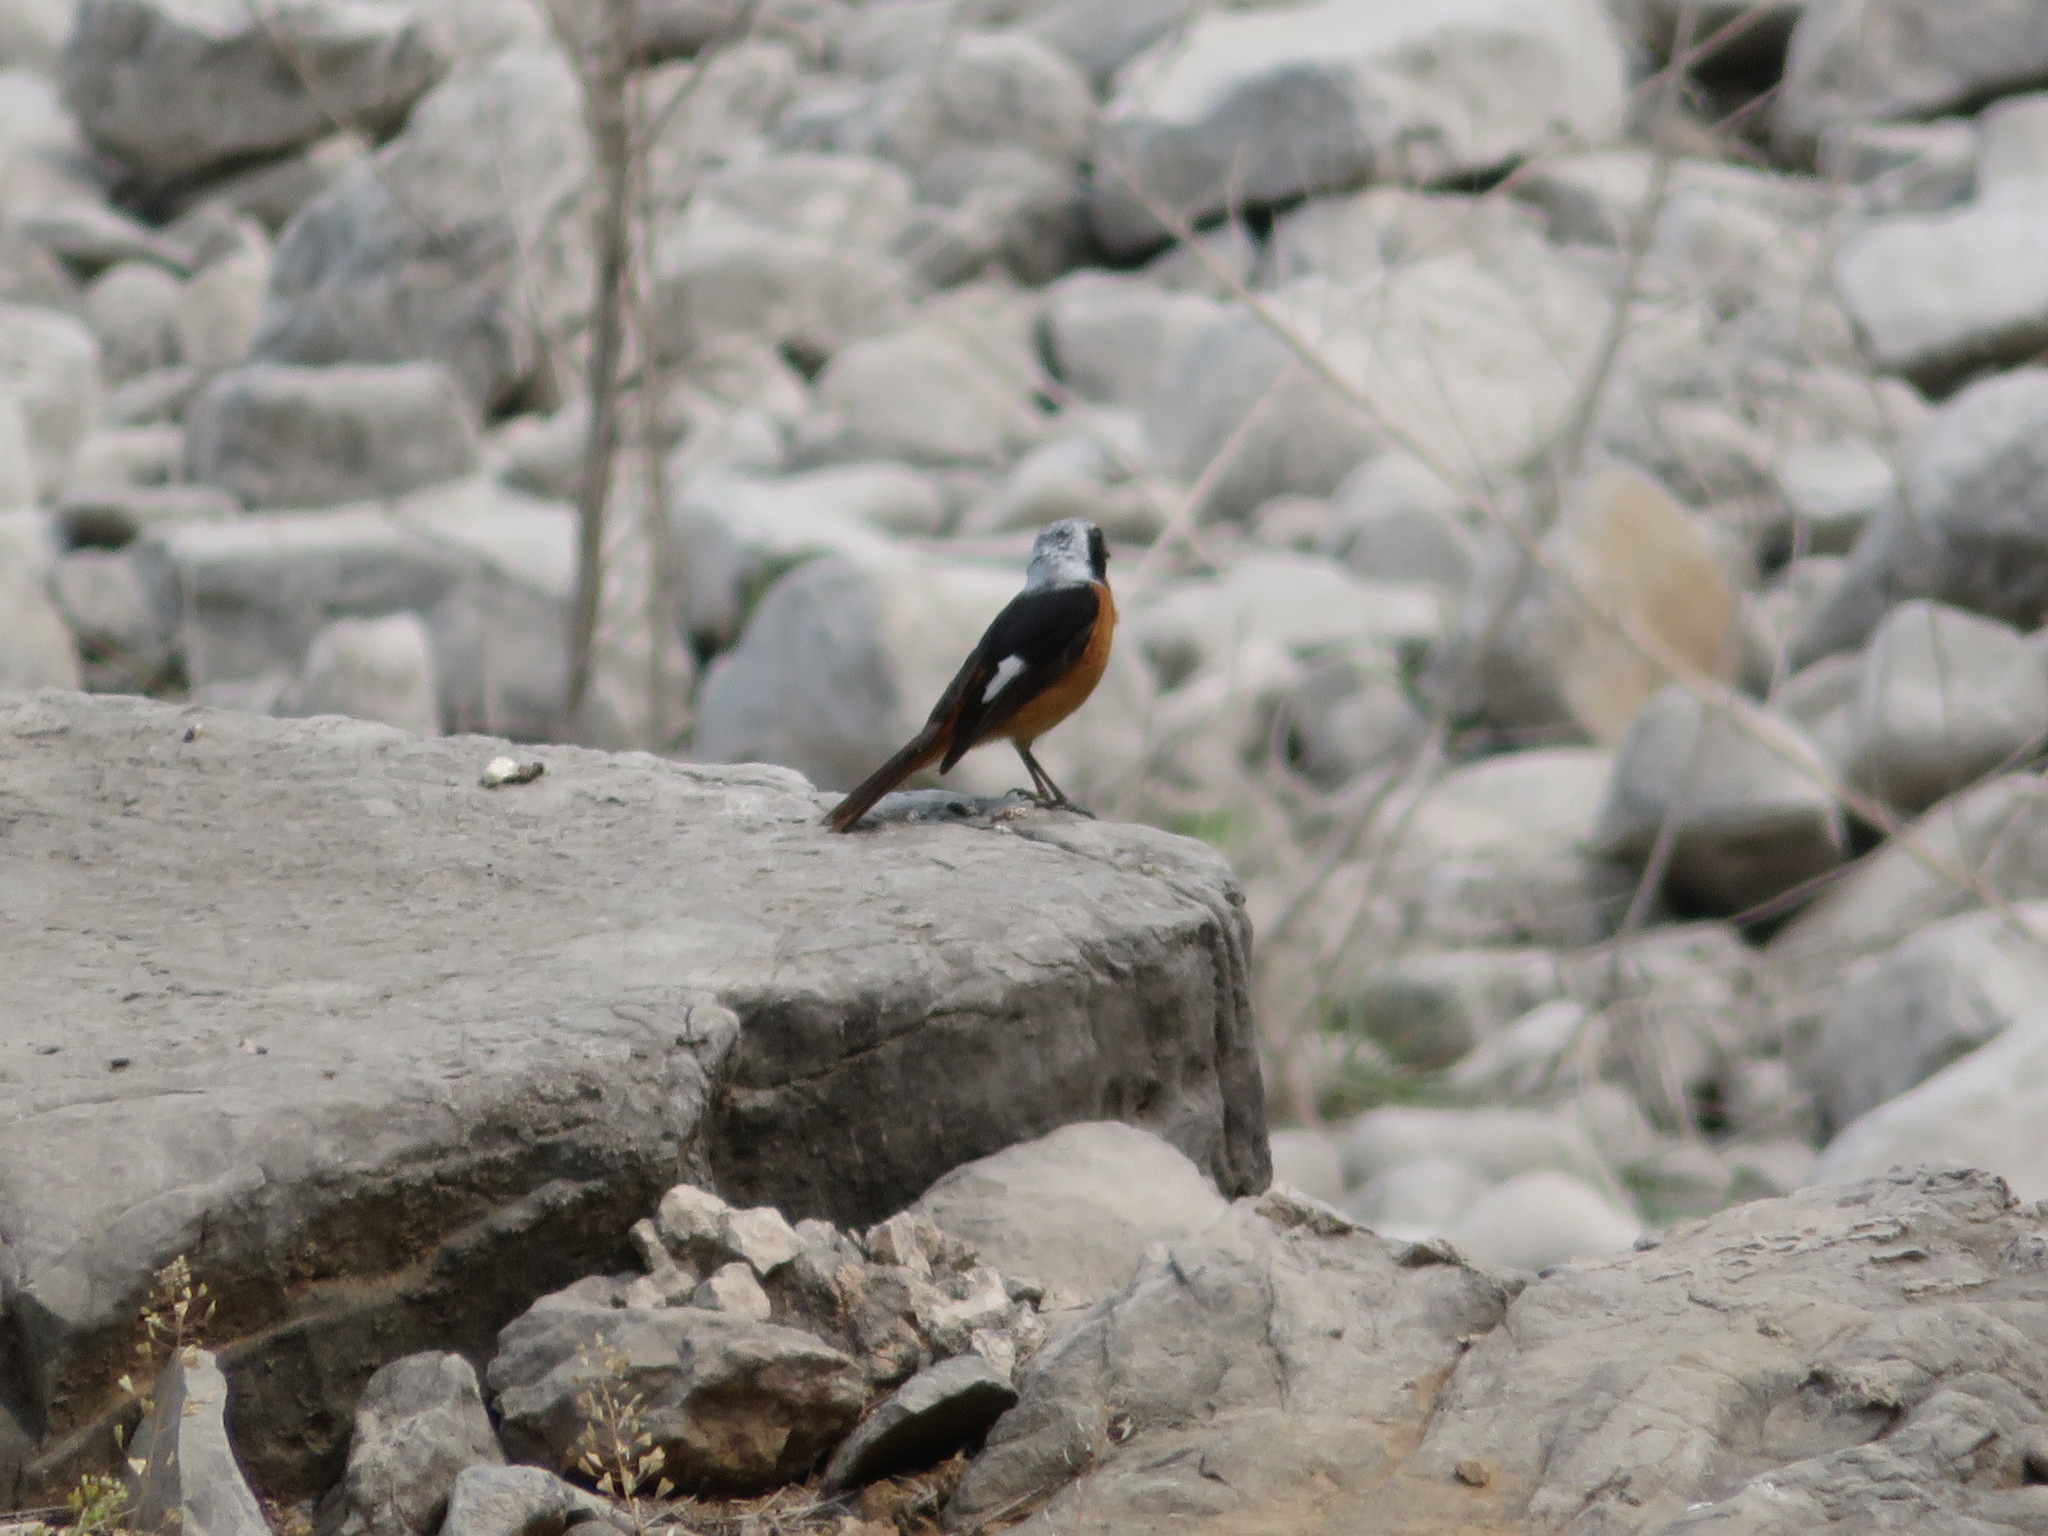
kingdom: Animalia
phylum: Chordata
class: Aves
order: Passeriformes
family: Muscicapidae
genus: Phoenicurus
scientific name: Phoenicurus auroreus
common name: Daurian redstart
